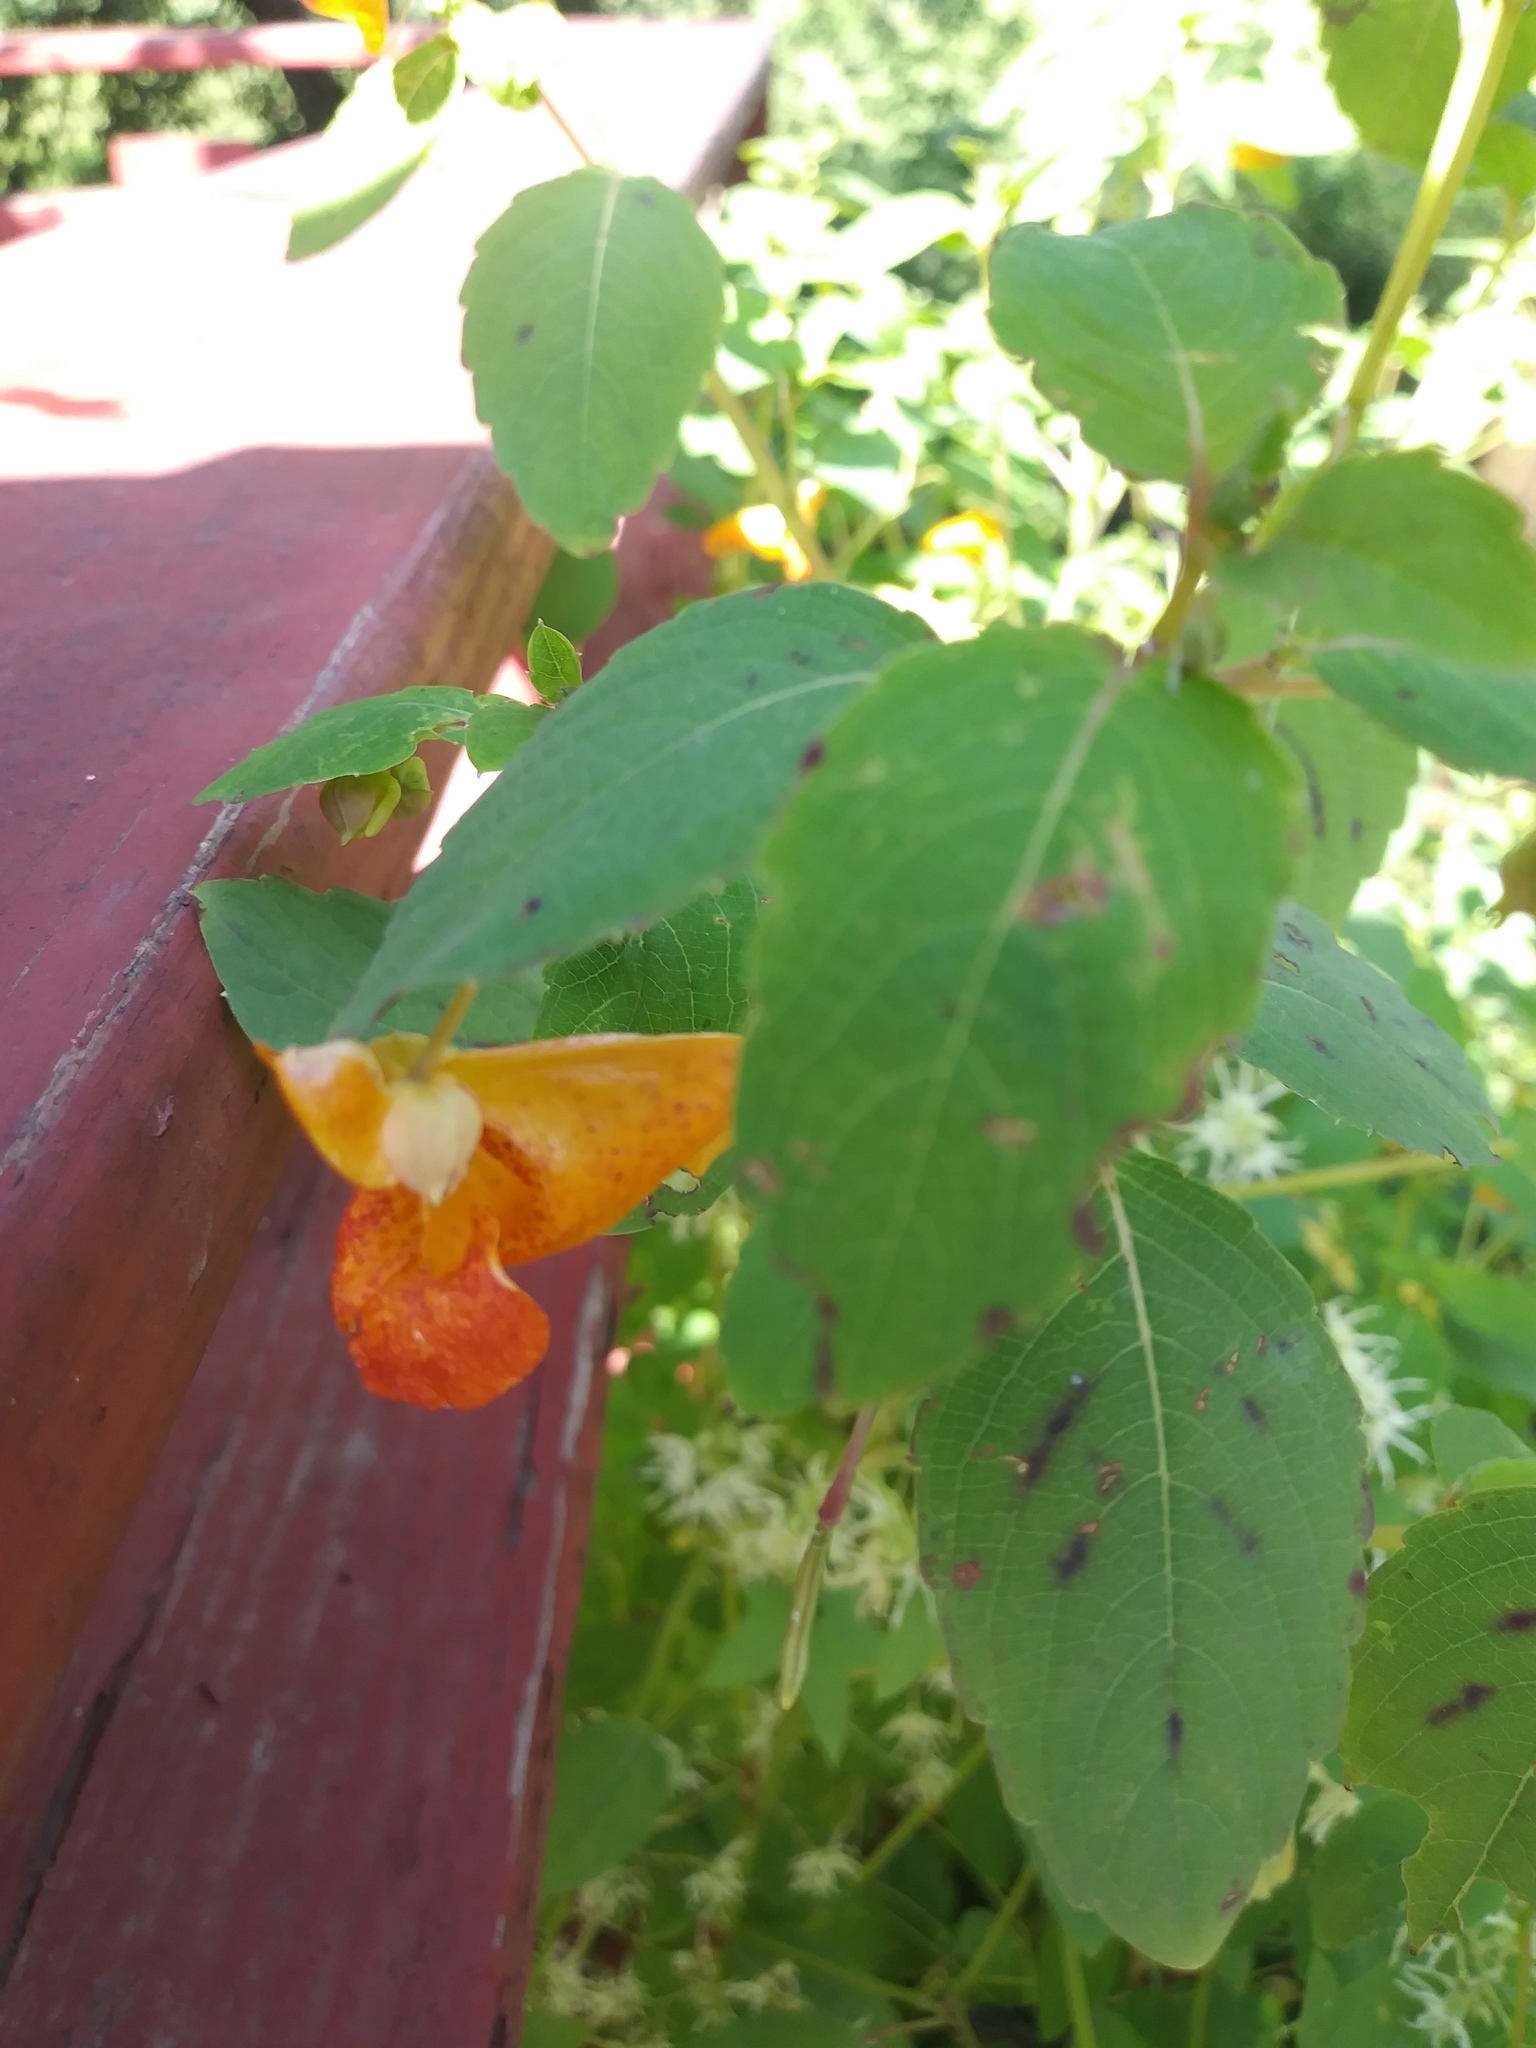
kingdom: Plantae
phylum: Tracheophyta
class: Magnoliopsida
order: Ericales
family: Balsaminaceae
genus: Impatiens
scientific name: Impatiens capensis
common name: Orange balsam
